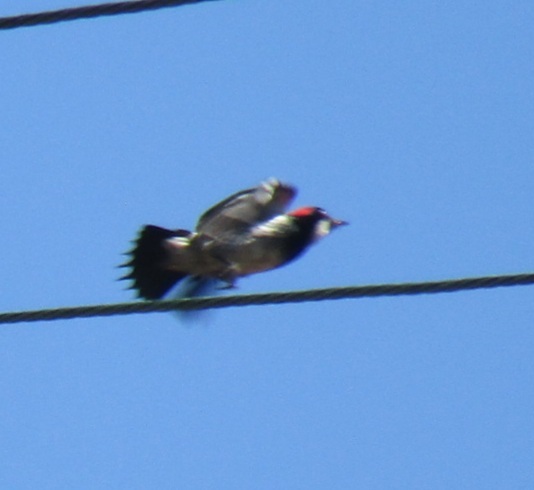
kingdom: Animalia
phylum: Chordata
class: Aves
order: Piciformes
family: Picidae
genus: Melanerpes
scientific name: Melanerpes formicivorus
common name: Acorn woodpecker
